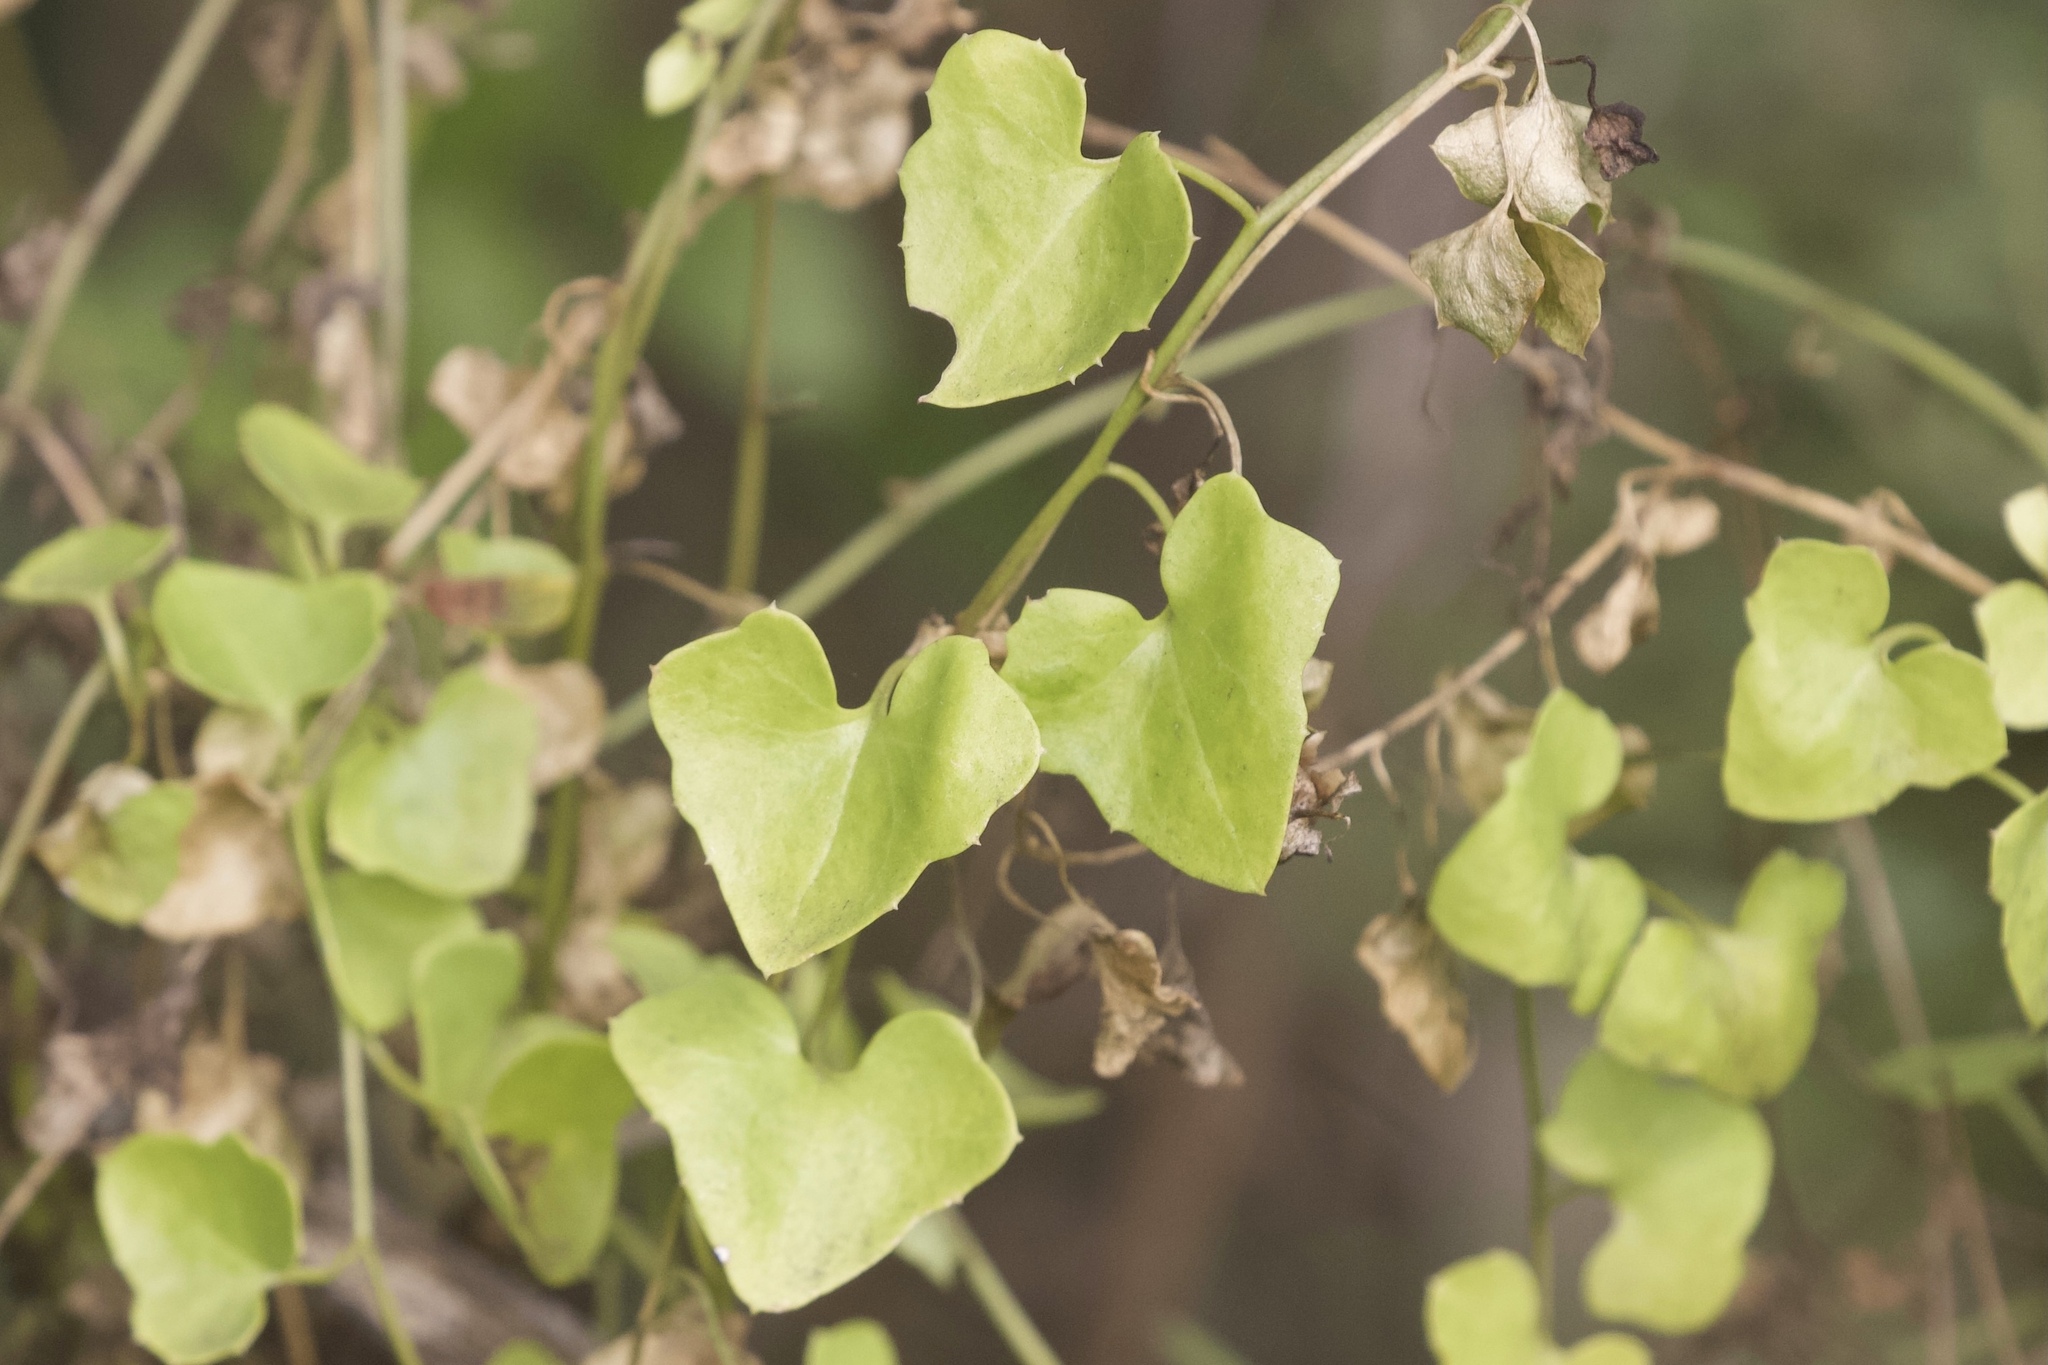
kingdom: Plantae
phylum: Tracheophyta
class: Magnoliopsida
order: Lamiales
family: Plantaginaceae
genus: Maurandella
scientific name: Maurandella antirrhiniflora
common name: Violet twining-snapdragon
